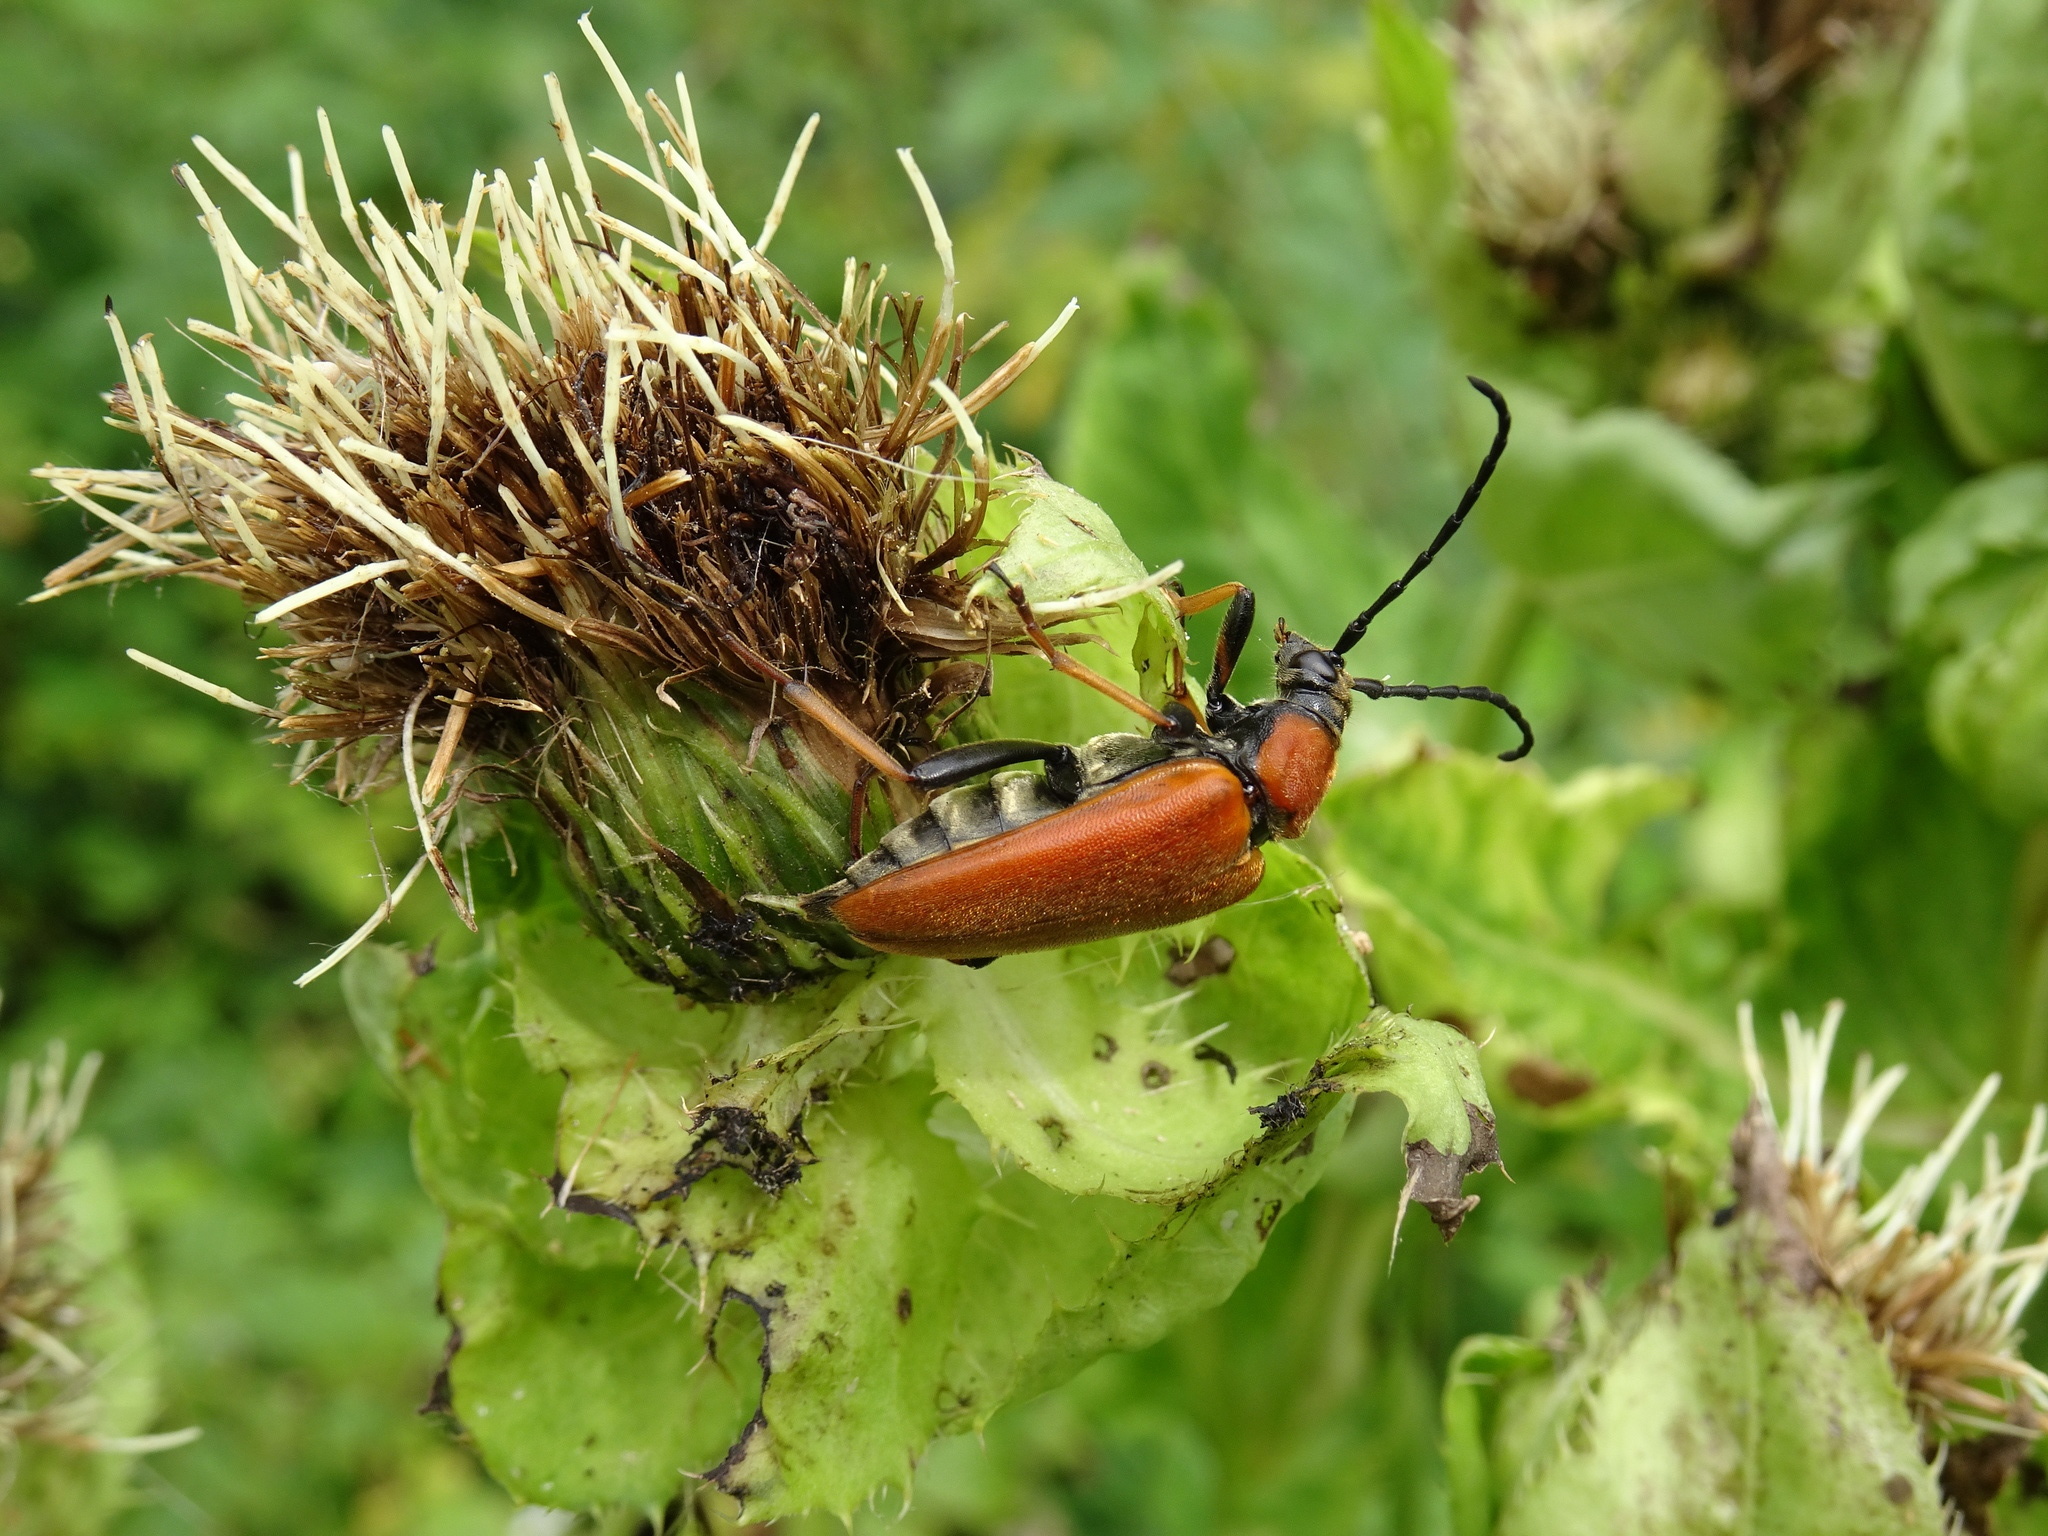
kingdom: Animalia
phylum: Arthropoda
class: Insecta
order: Coleoptera
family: Cerambycidae
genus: Stictoleptura
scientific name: Stictoleptura rubra
